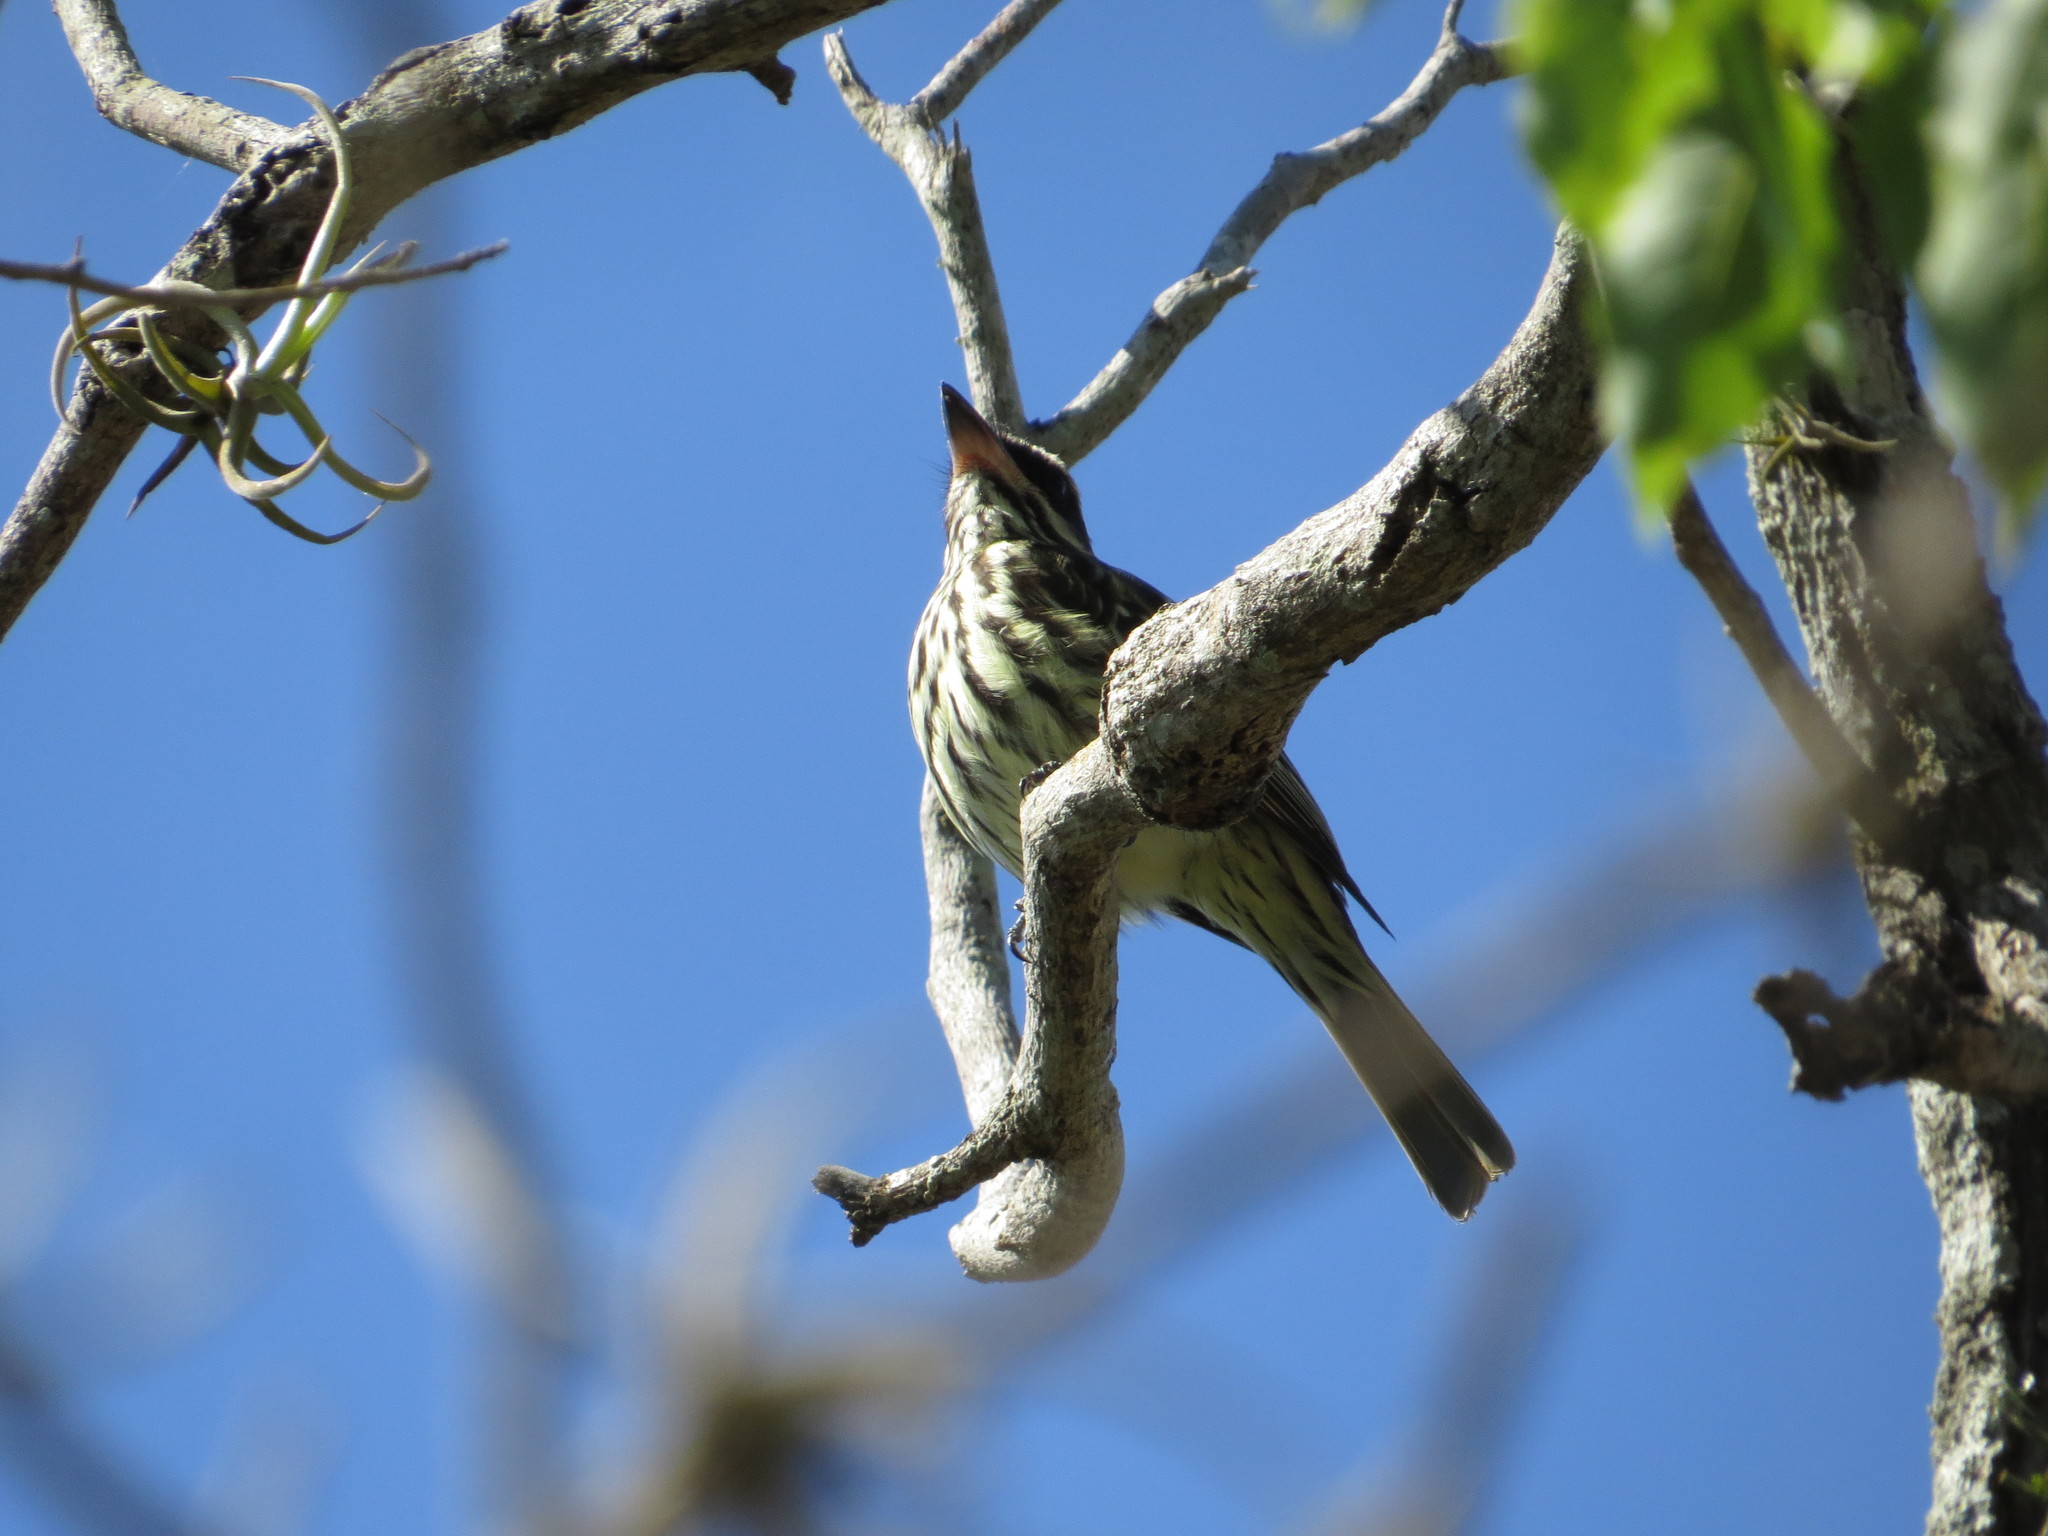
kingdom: Animalia
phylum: Chordata
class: Aves
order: Passeriformes
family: Tyrannidae
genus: Myiodynastes
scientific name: Myiodynastes maculatus
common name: Streaked flycatcher
